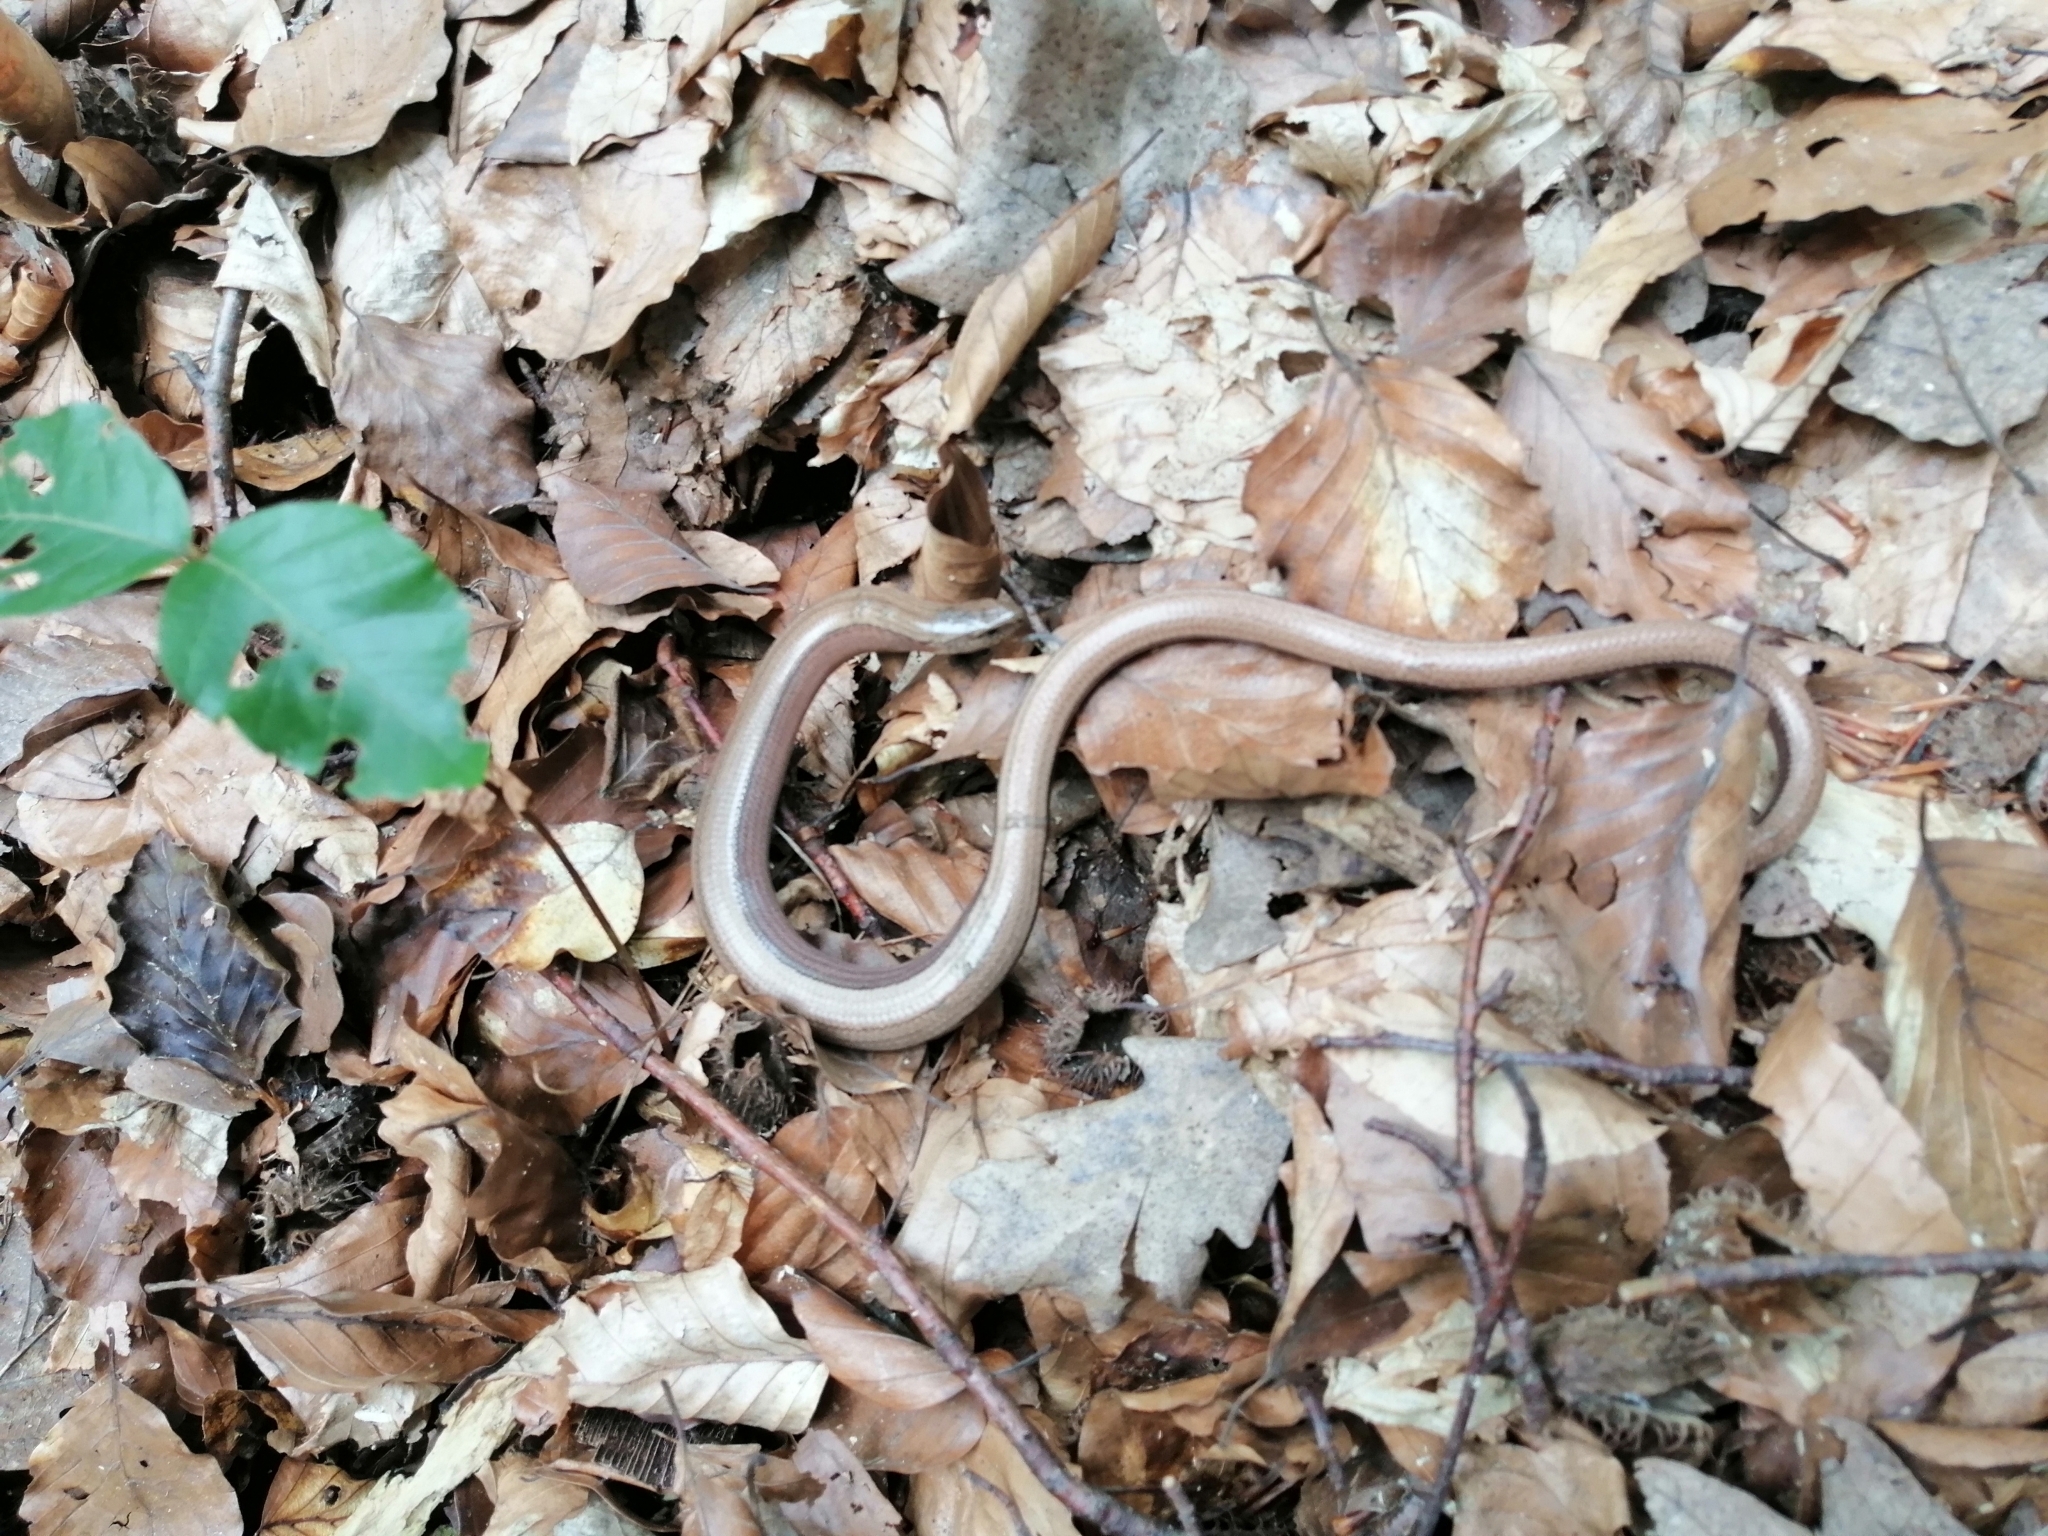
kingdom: Animalia
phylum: Chordata
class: Squamata
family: Anguidae
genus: Anguis
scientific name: Anguis fragilis
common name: Slow worm
